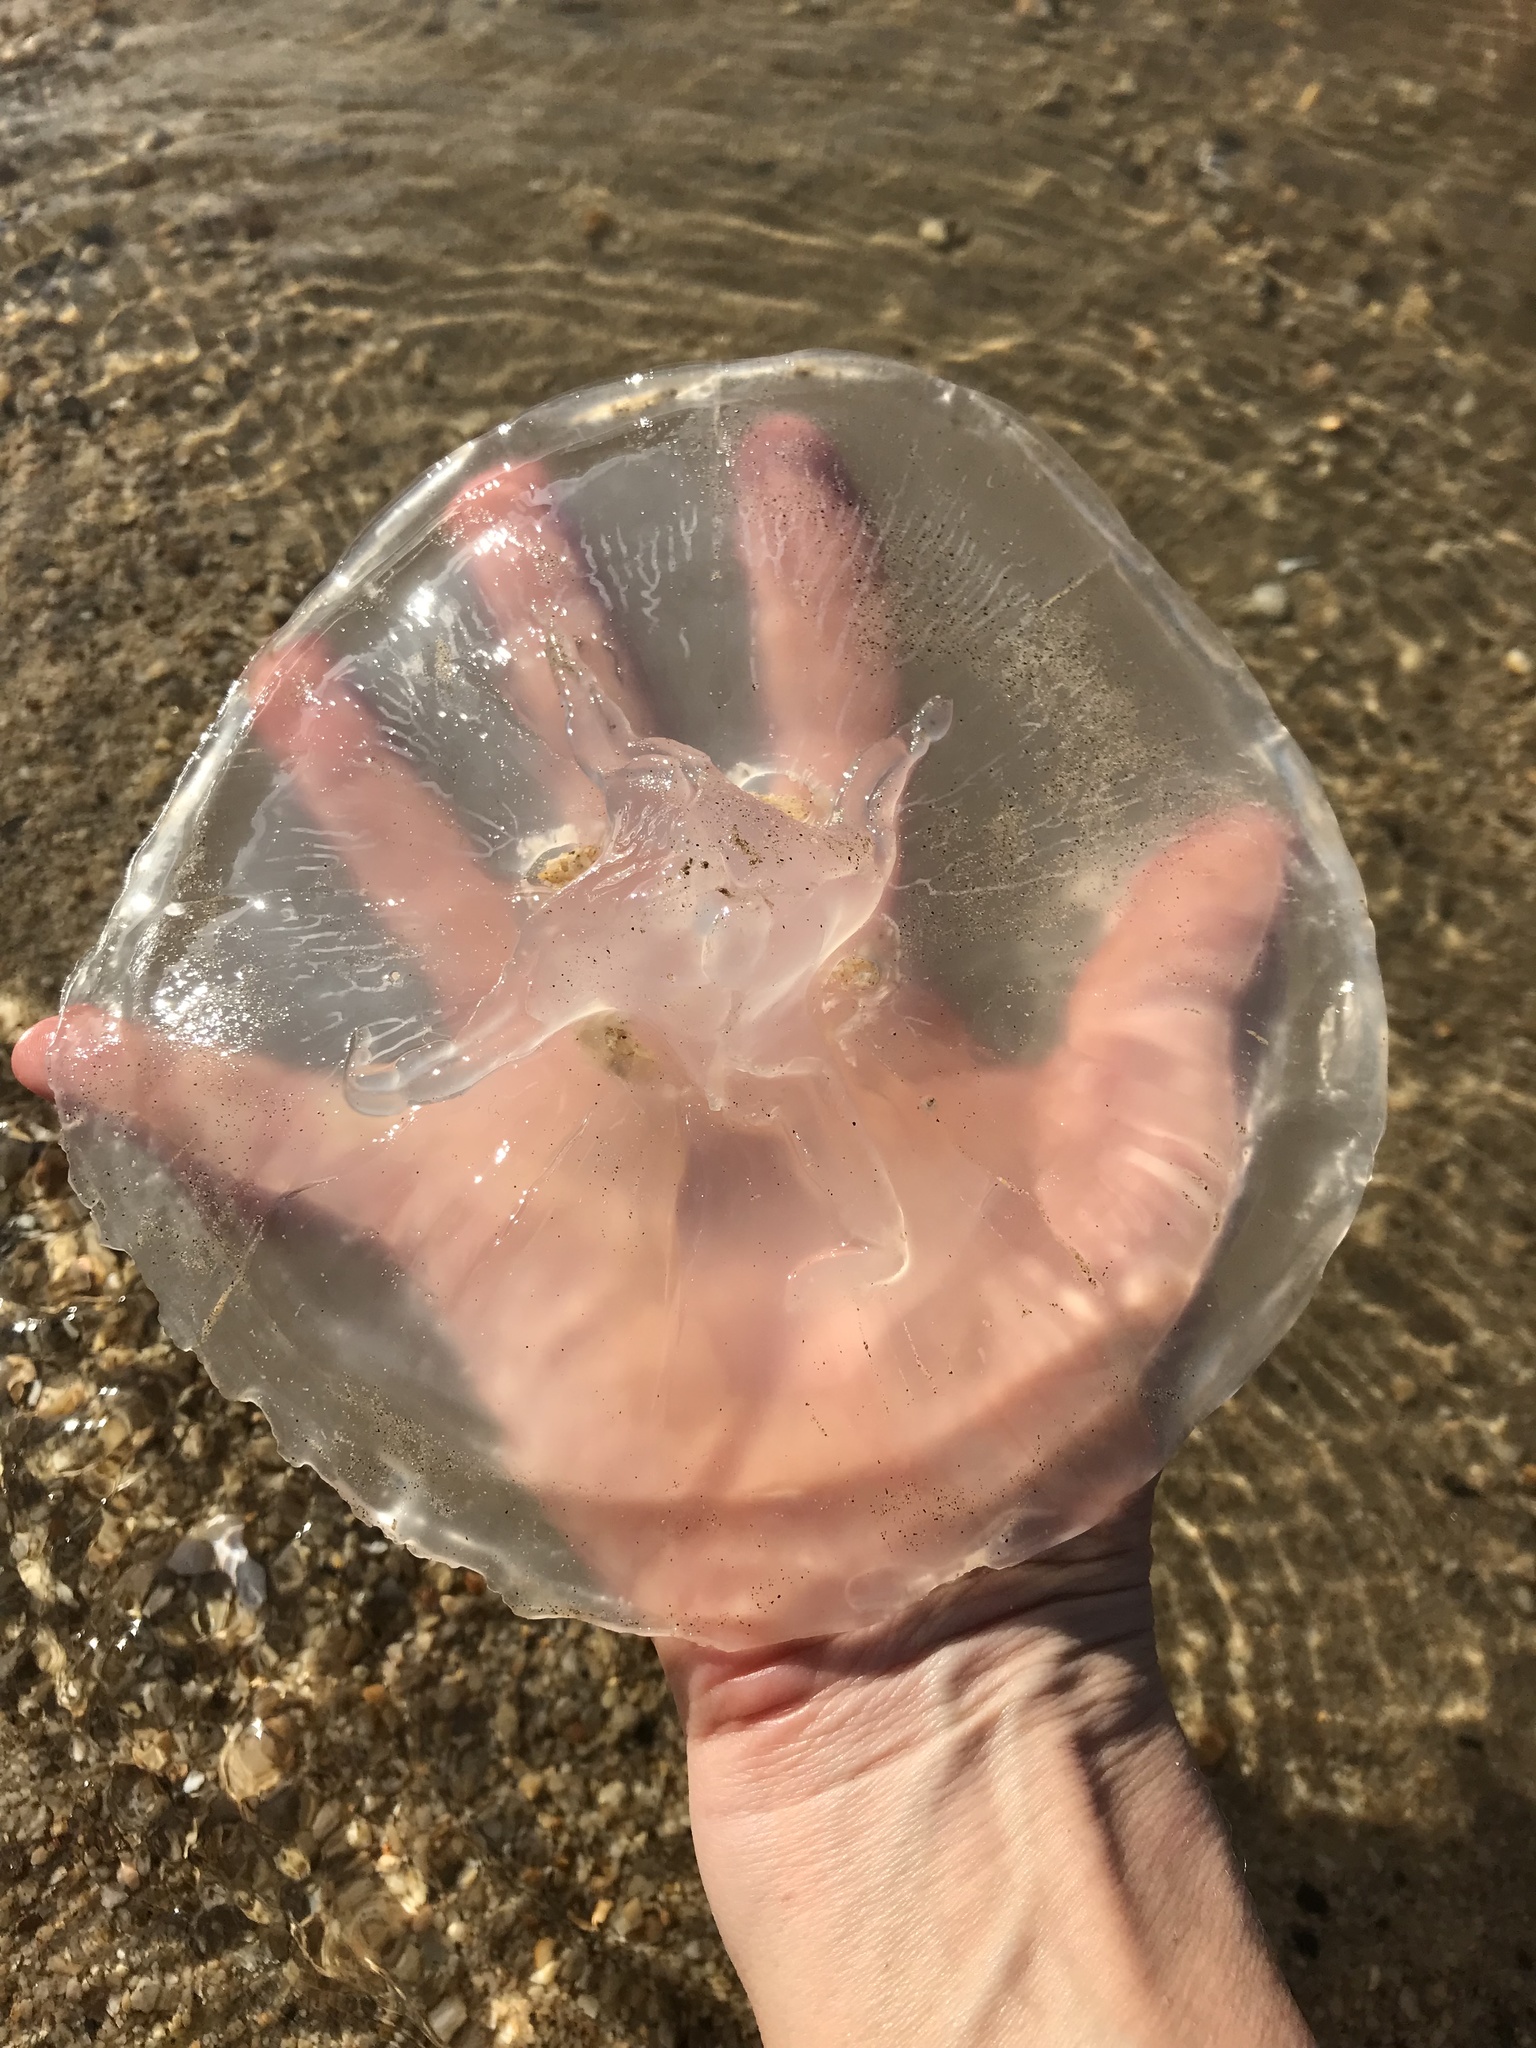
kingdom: Animalia
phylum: Cnidaria
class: Scyphozoa
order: Semaeostomeae
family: Ulmaridae
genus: Aurelia
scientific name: Aurelia labiata
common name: Pacific moon jelly
